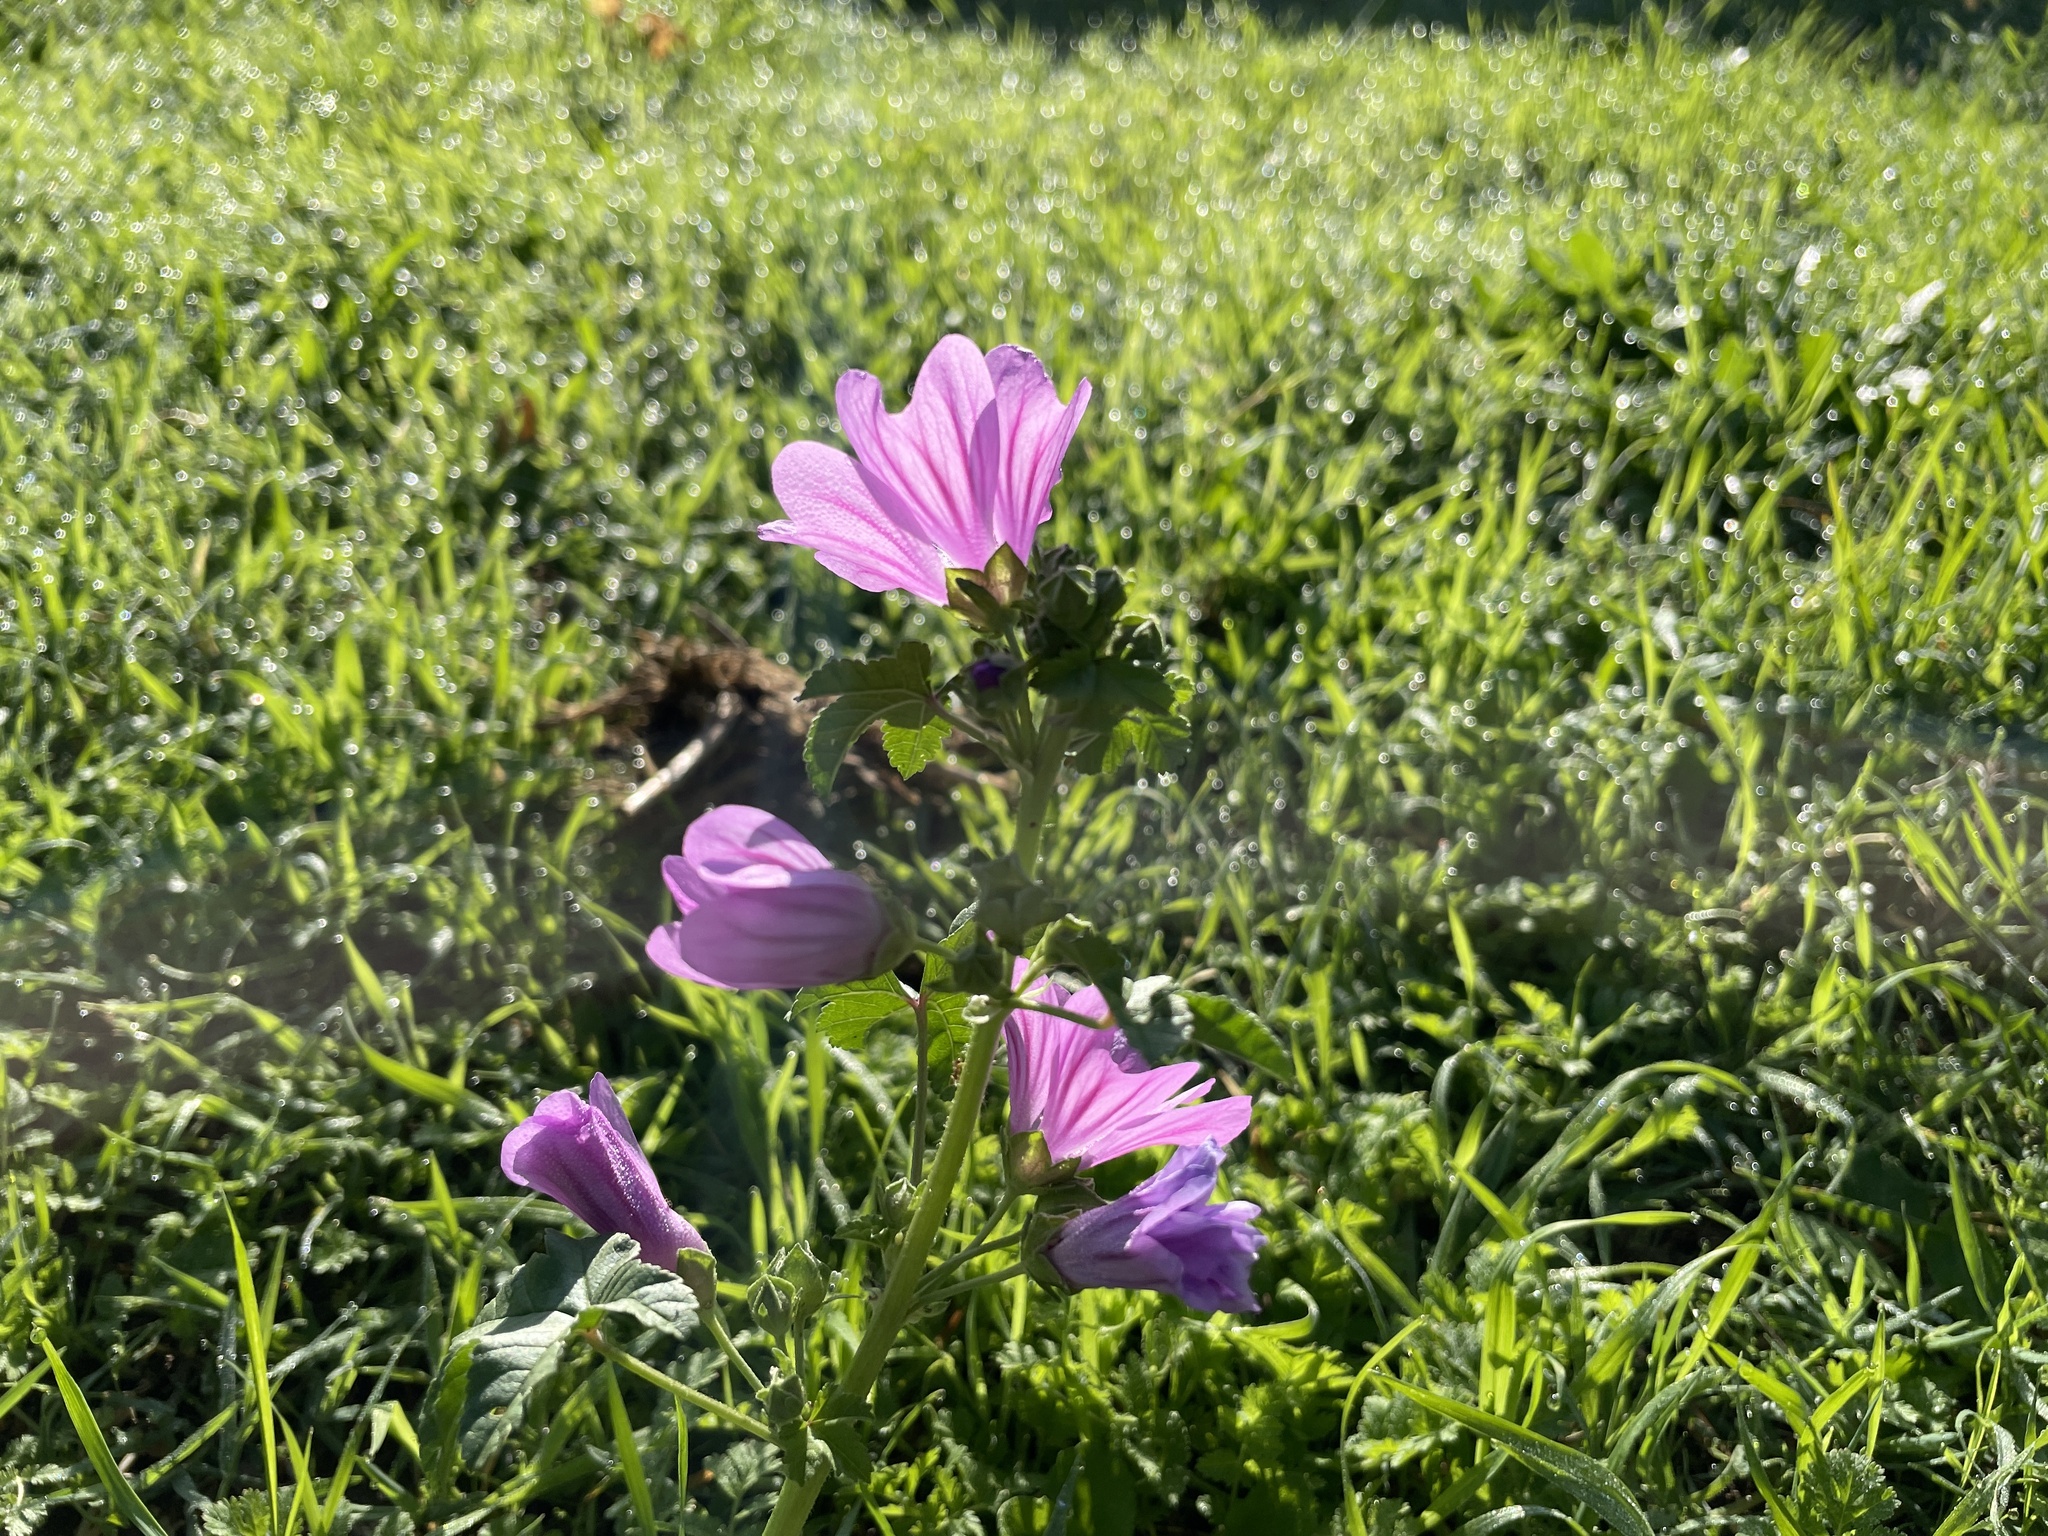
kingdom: Plantae
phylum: Tracheophyta
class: Magnoliopsida
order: Malvales
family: Malvaceae
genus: Malva
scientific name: Malva sylvestris
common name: Common mallow
